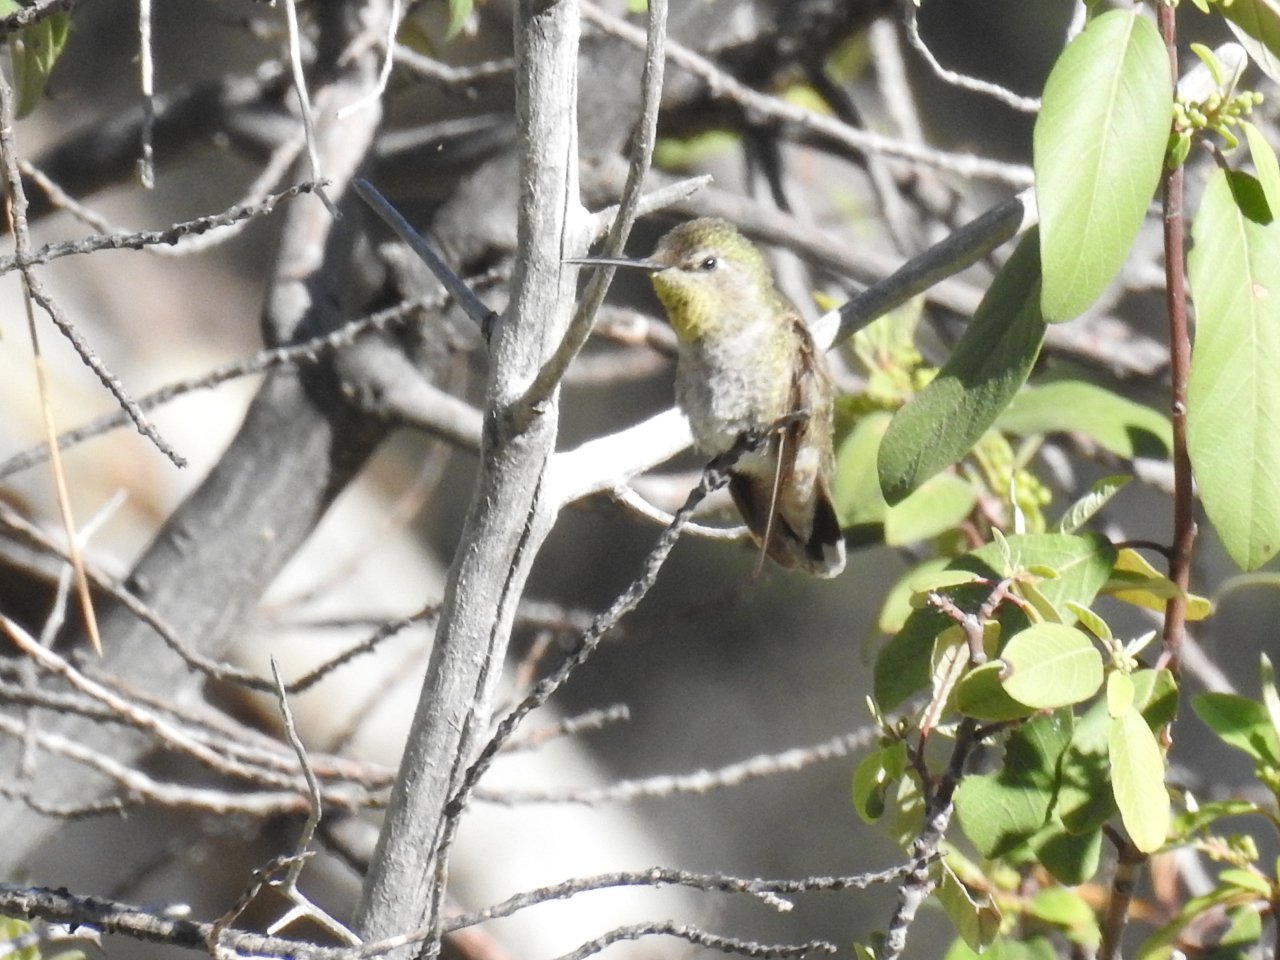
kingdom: Animalia
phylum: Chordata
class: Aves
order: Apodiformes
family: Trochilidae
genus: Calypte
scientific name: Calypte anna
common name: Anna's hummingbird
